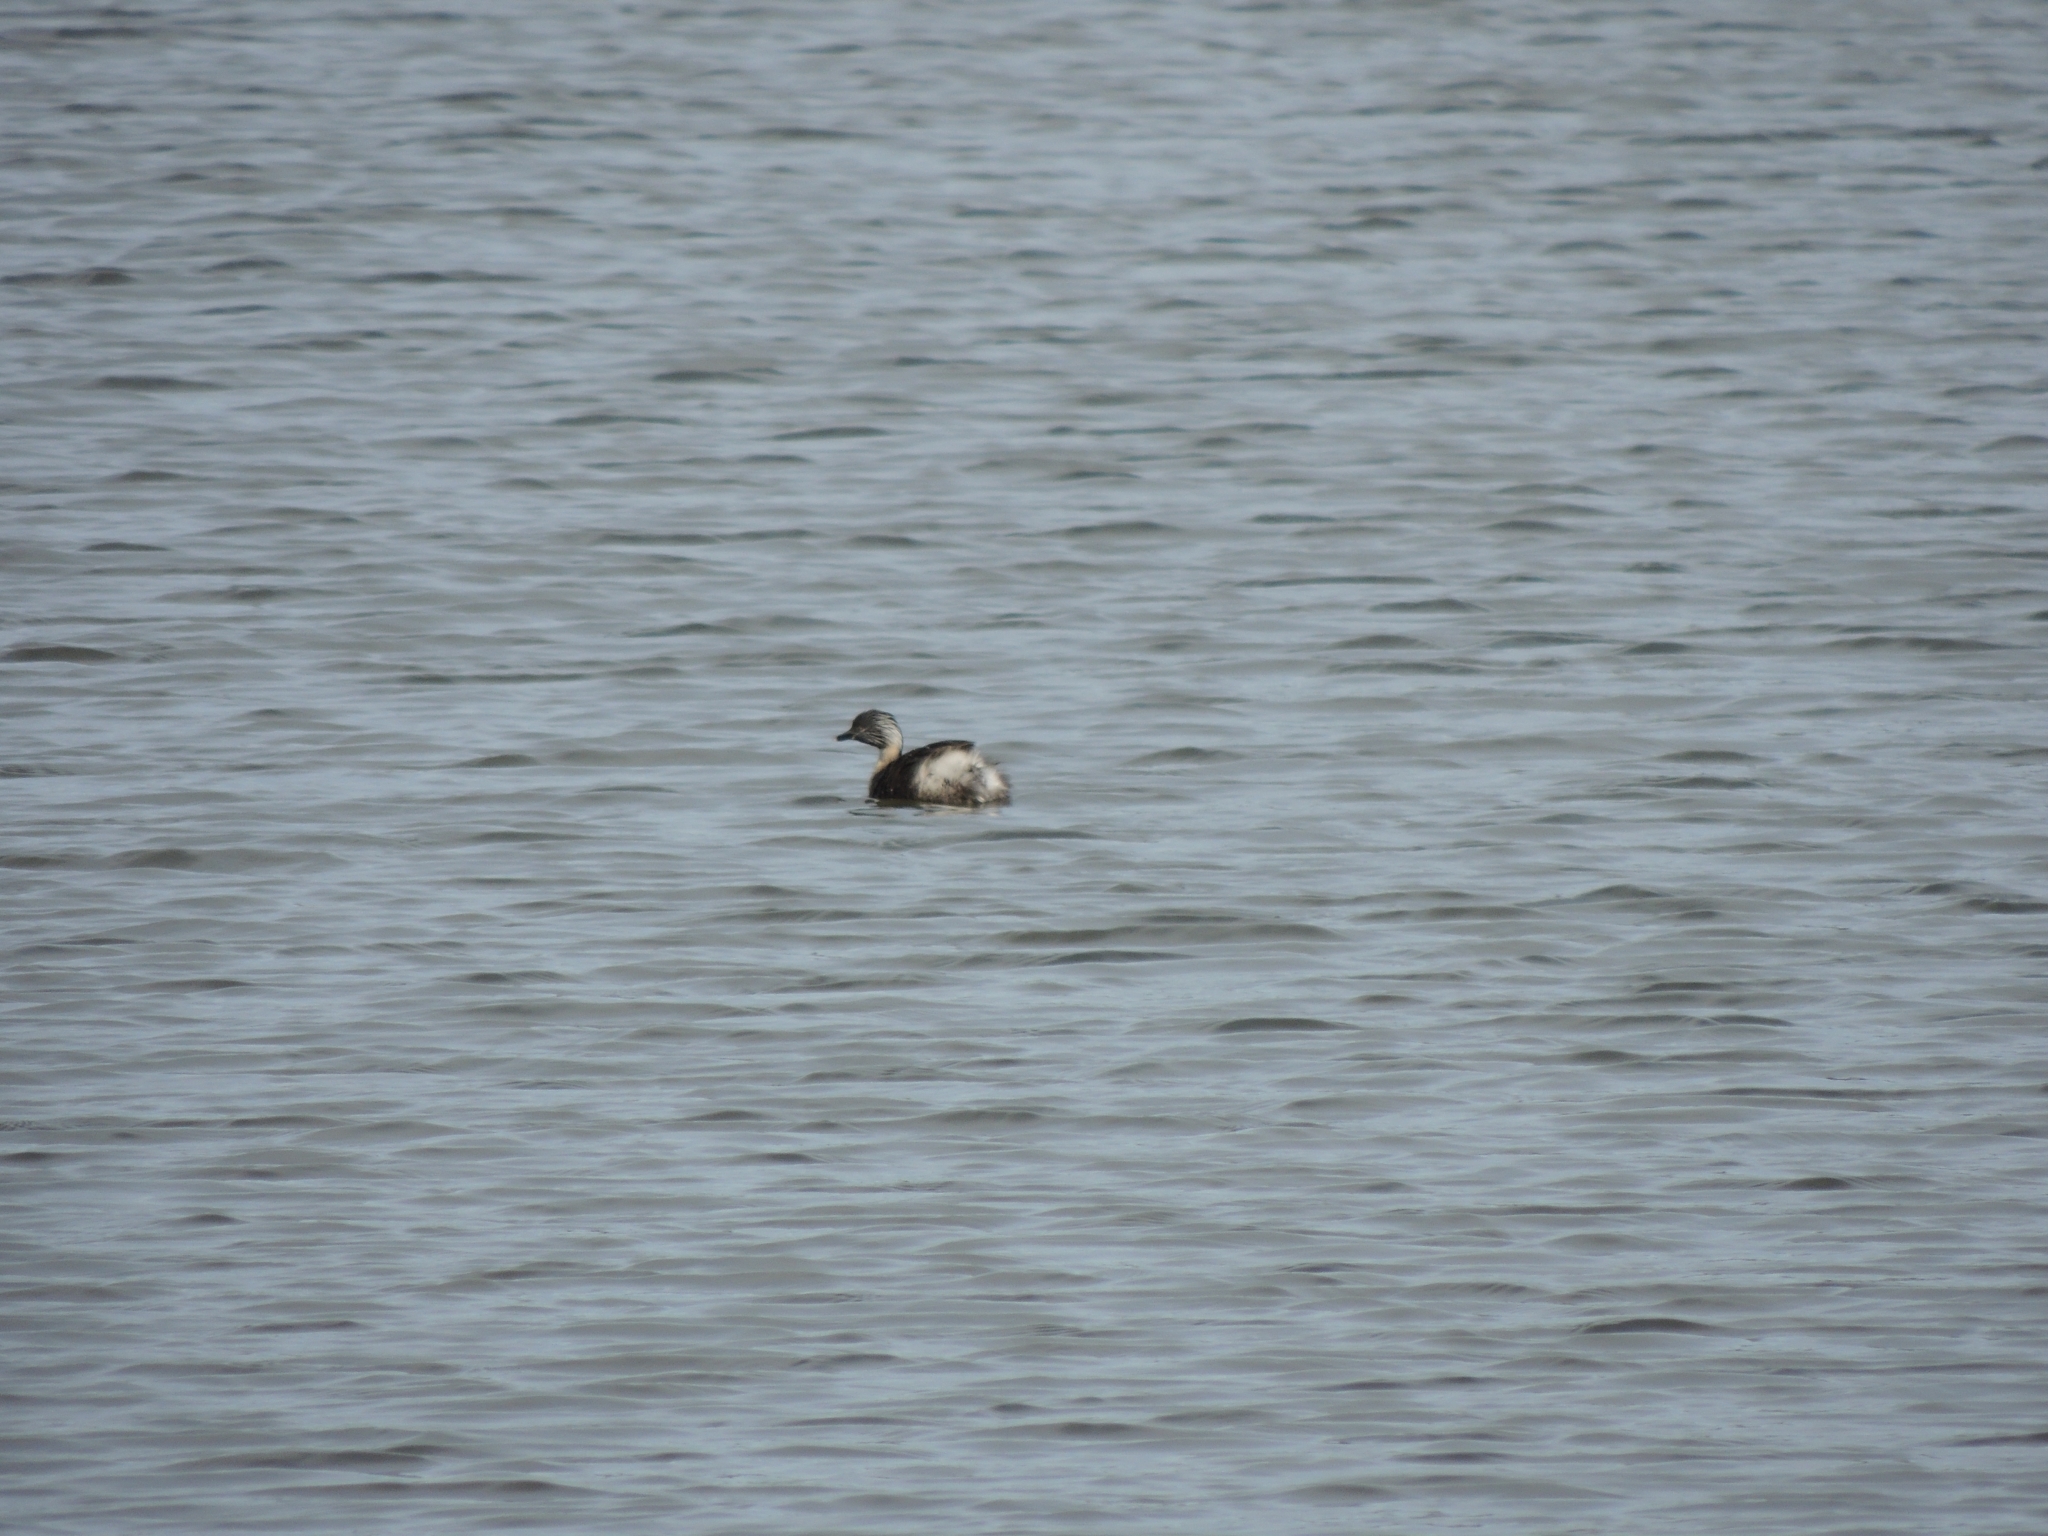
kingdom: Animalia
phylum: Chordata
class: Aves
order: Podicipediformes
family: Podicipedidae
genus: Poliocephalus
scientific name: Poliocephalus poliocephalus
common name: Hoary-headed grebe
